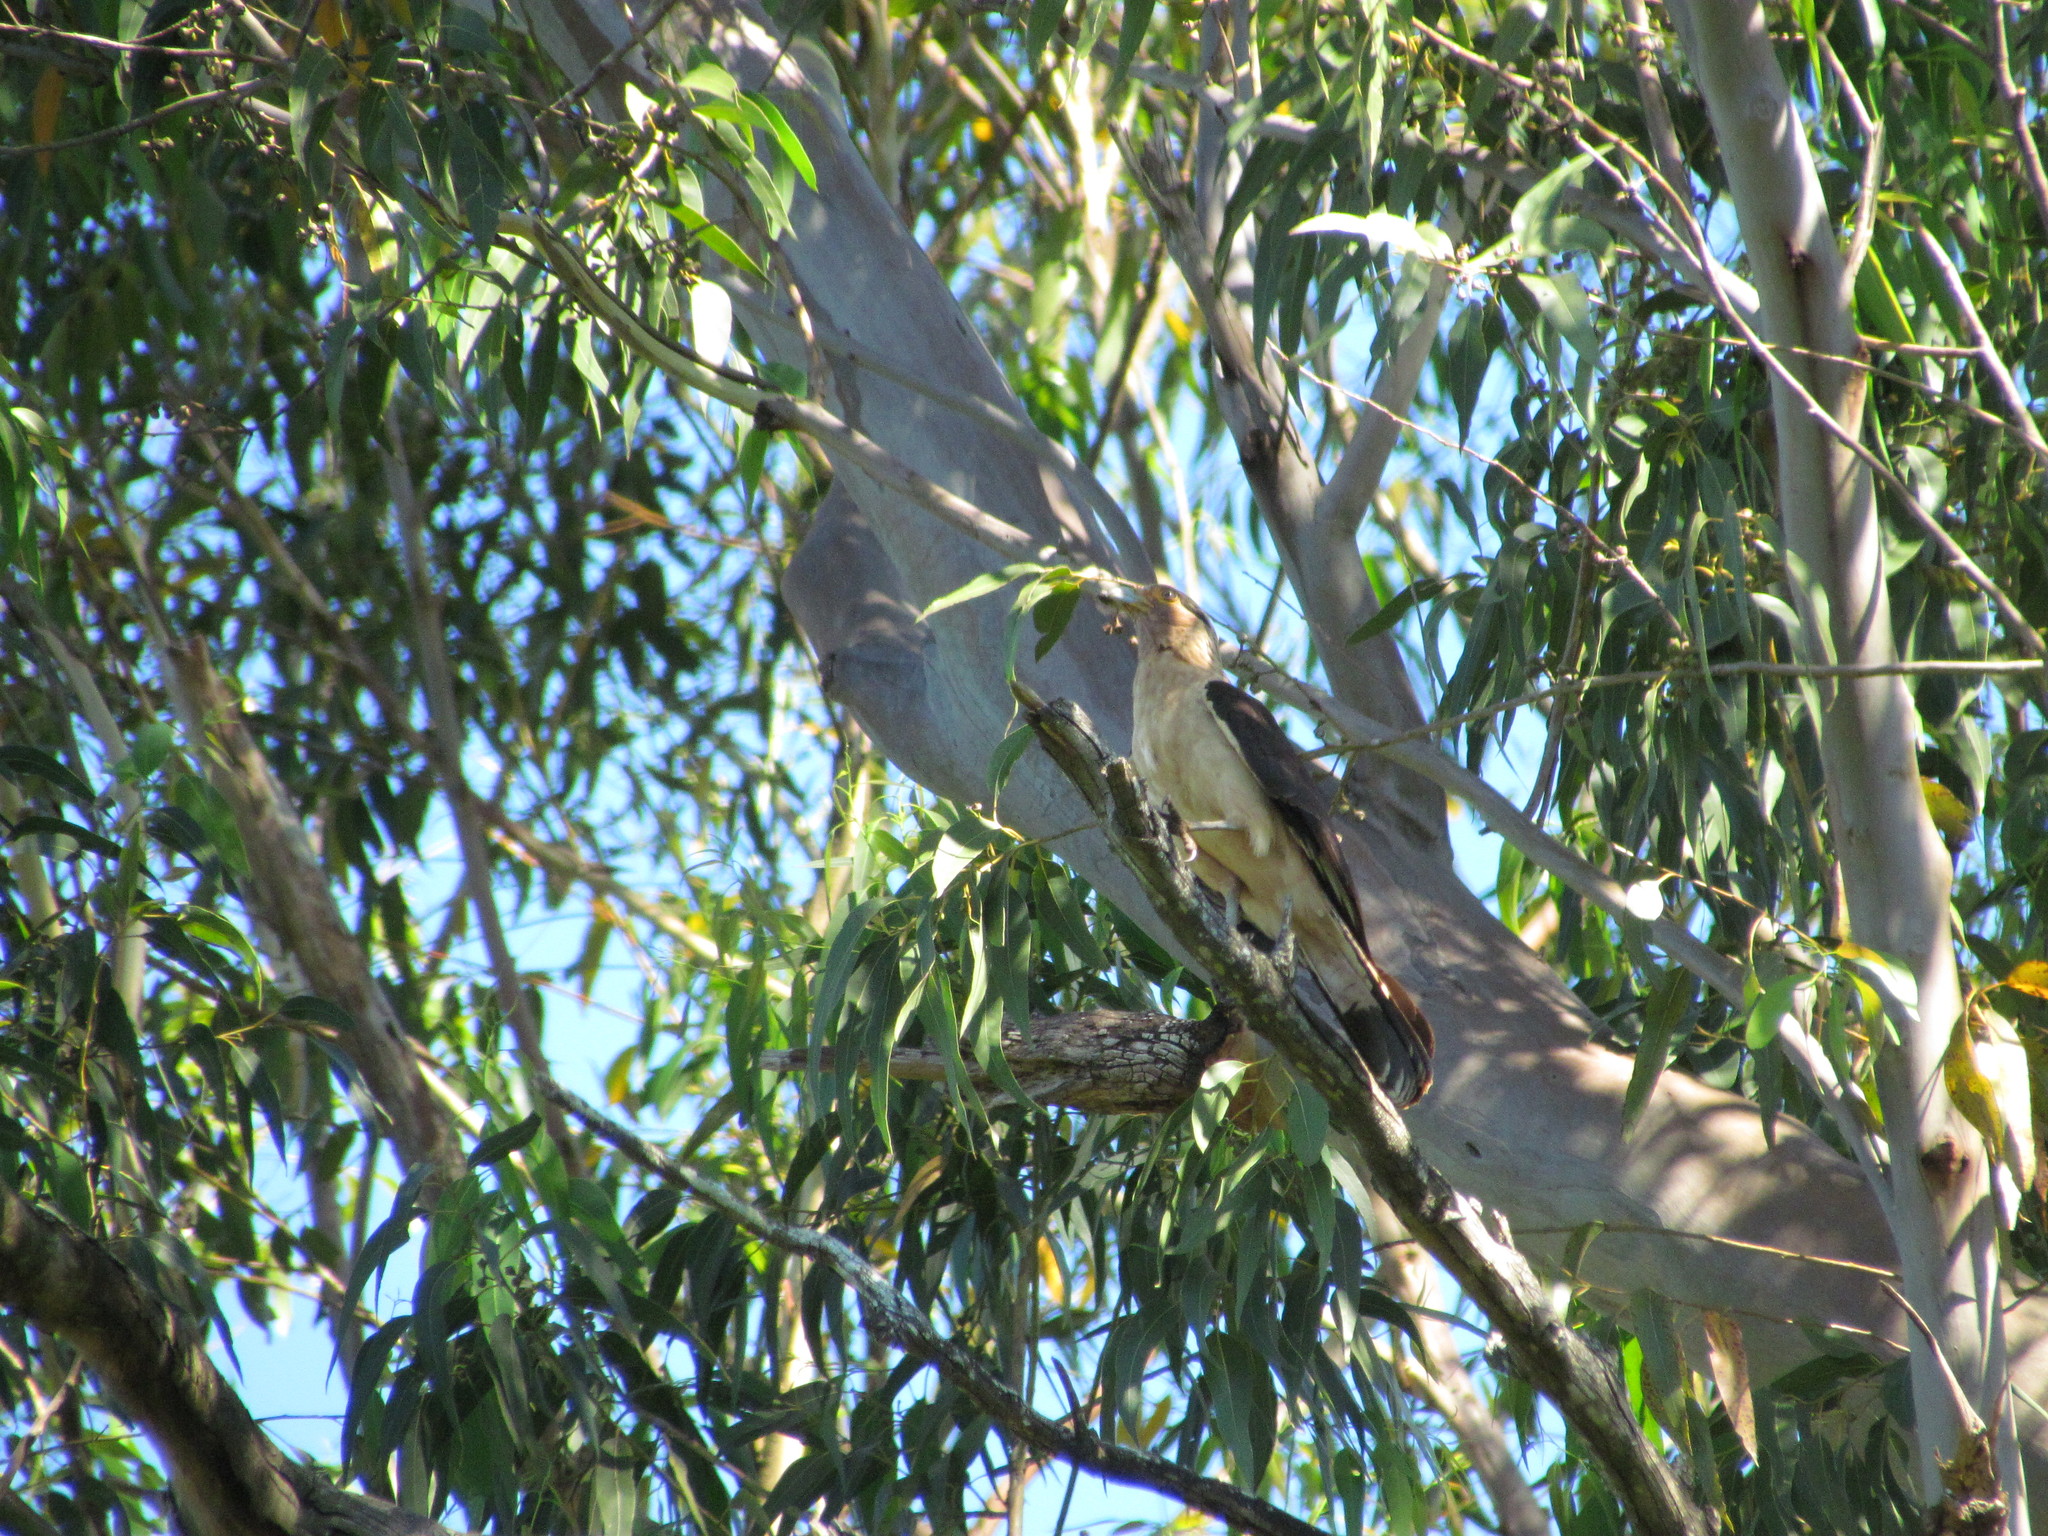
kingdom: Animalia
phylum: Chordata
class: Aves
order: Falconiformes
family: Falconidae
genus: Daptrius
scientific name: Daptrius
